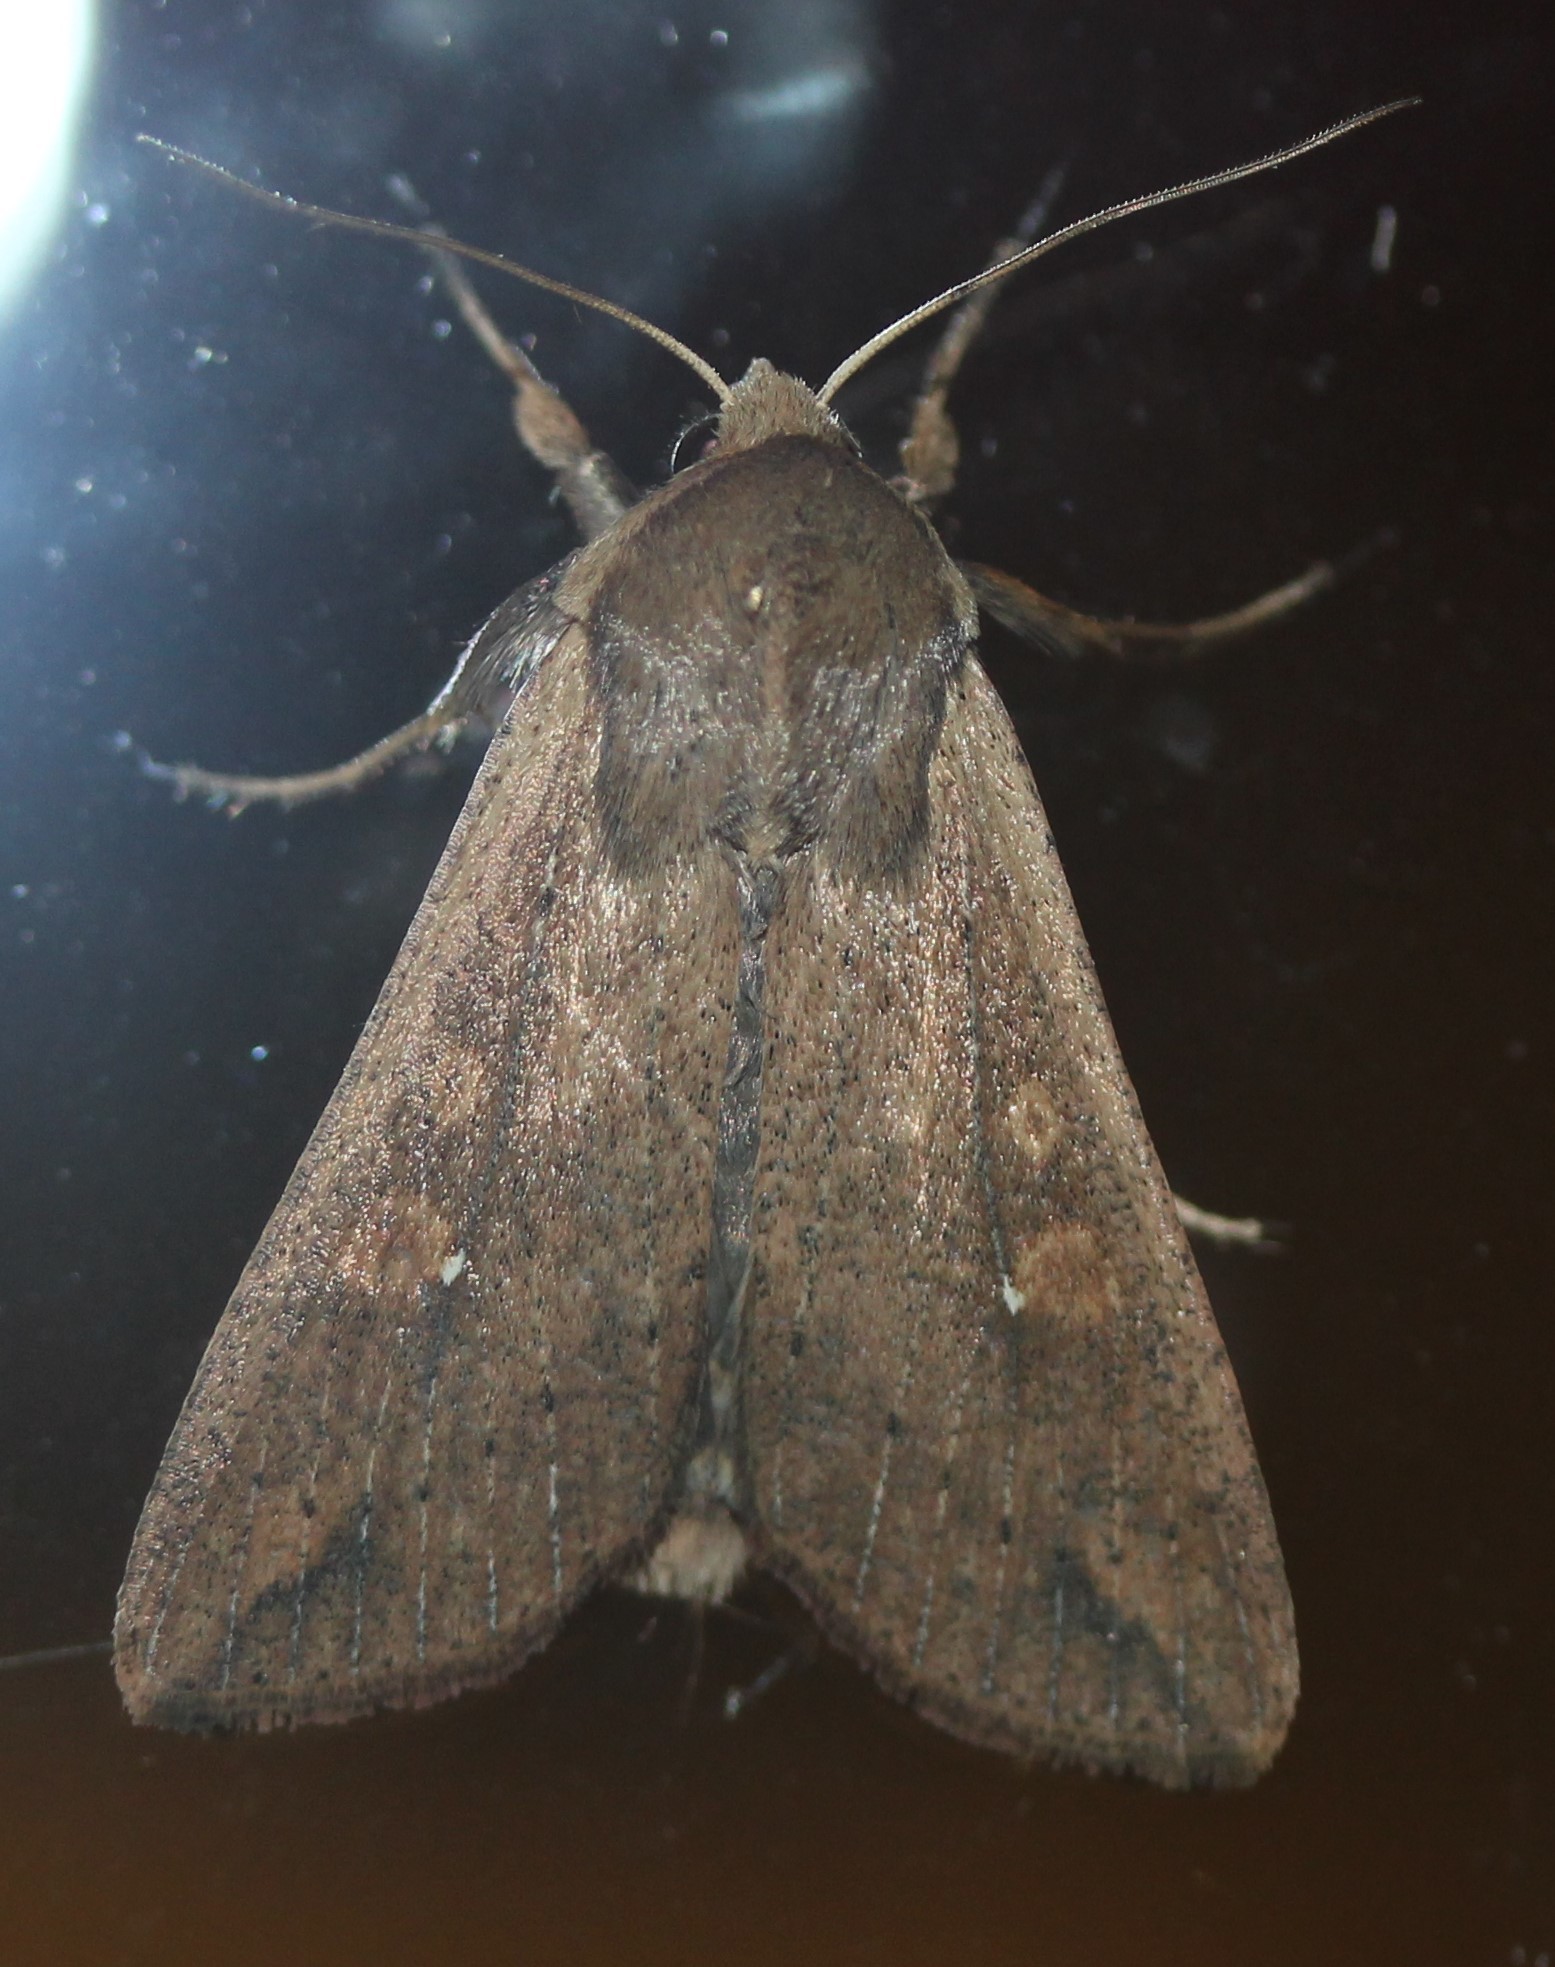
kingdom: Animalia
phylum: Arthropoda
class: Insecta
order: Lepidoptera
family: Noctuidae
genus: Mythimna
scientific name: Mythimna unipuncta
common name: White-speck
